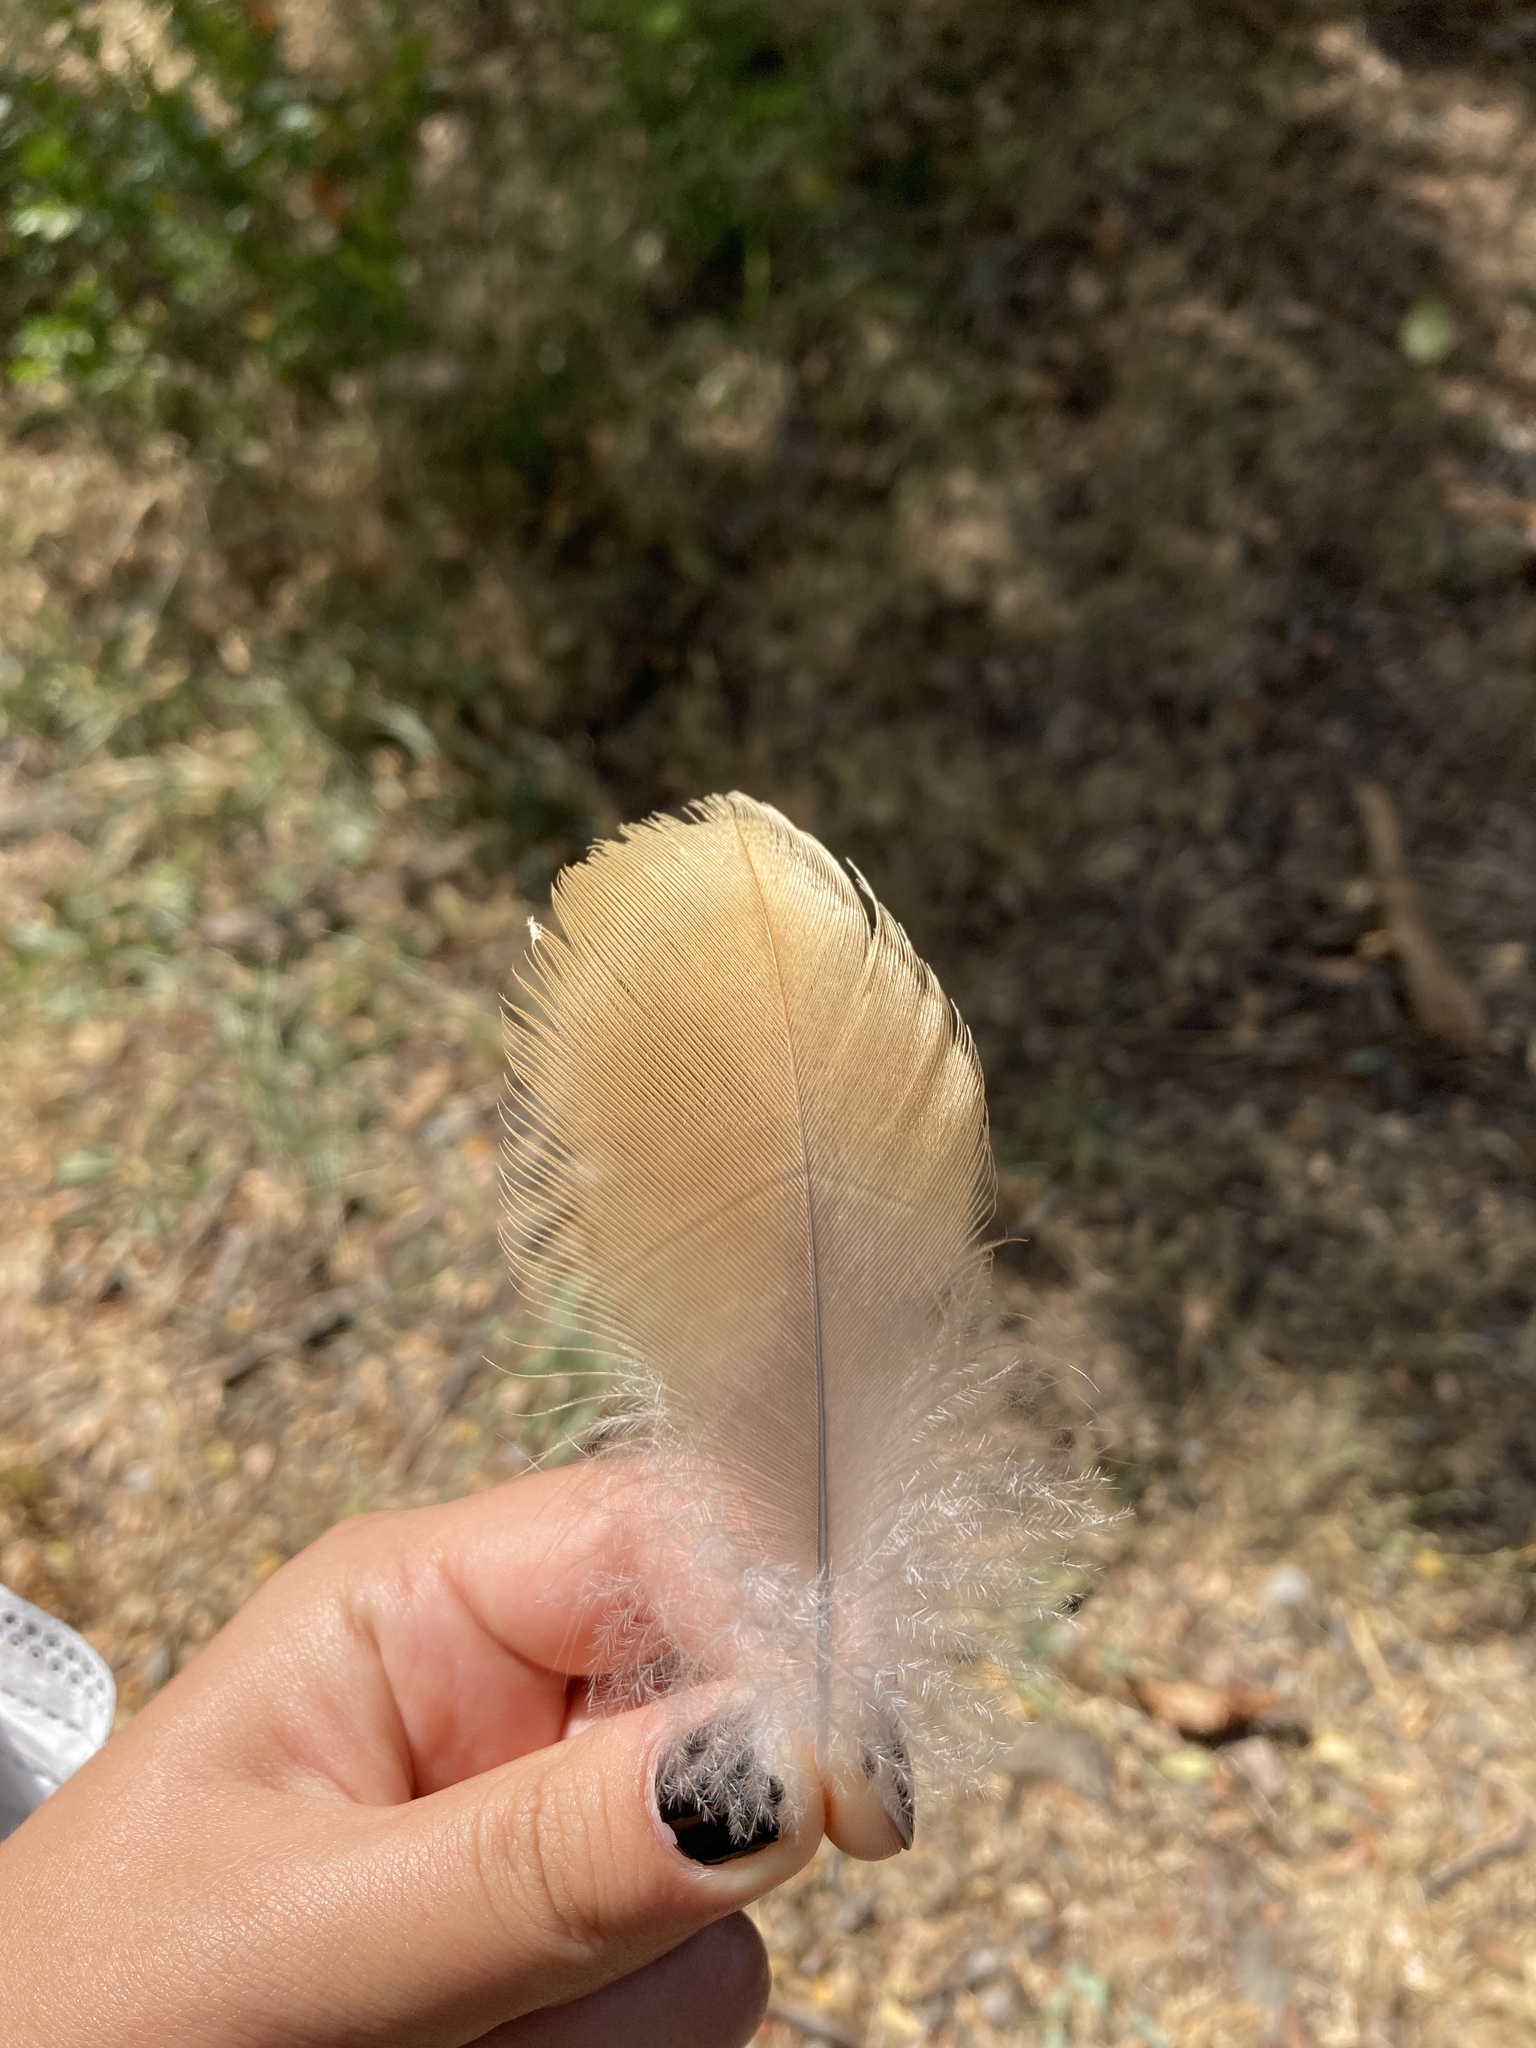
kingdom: Animalia
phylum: Chordata
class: Aves
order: Anseriformes
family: Anatidae
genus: Tadorna
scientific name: Tadorna ferruginea
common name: Ruddy shelduck
